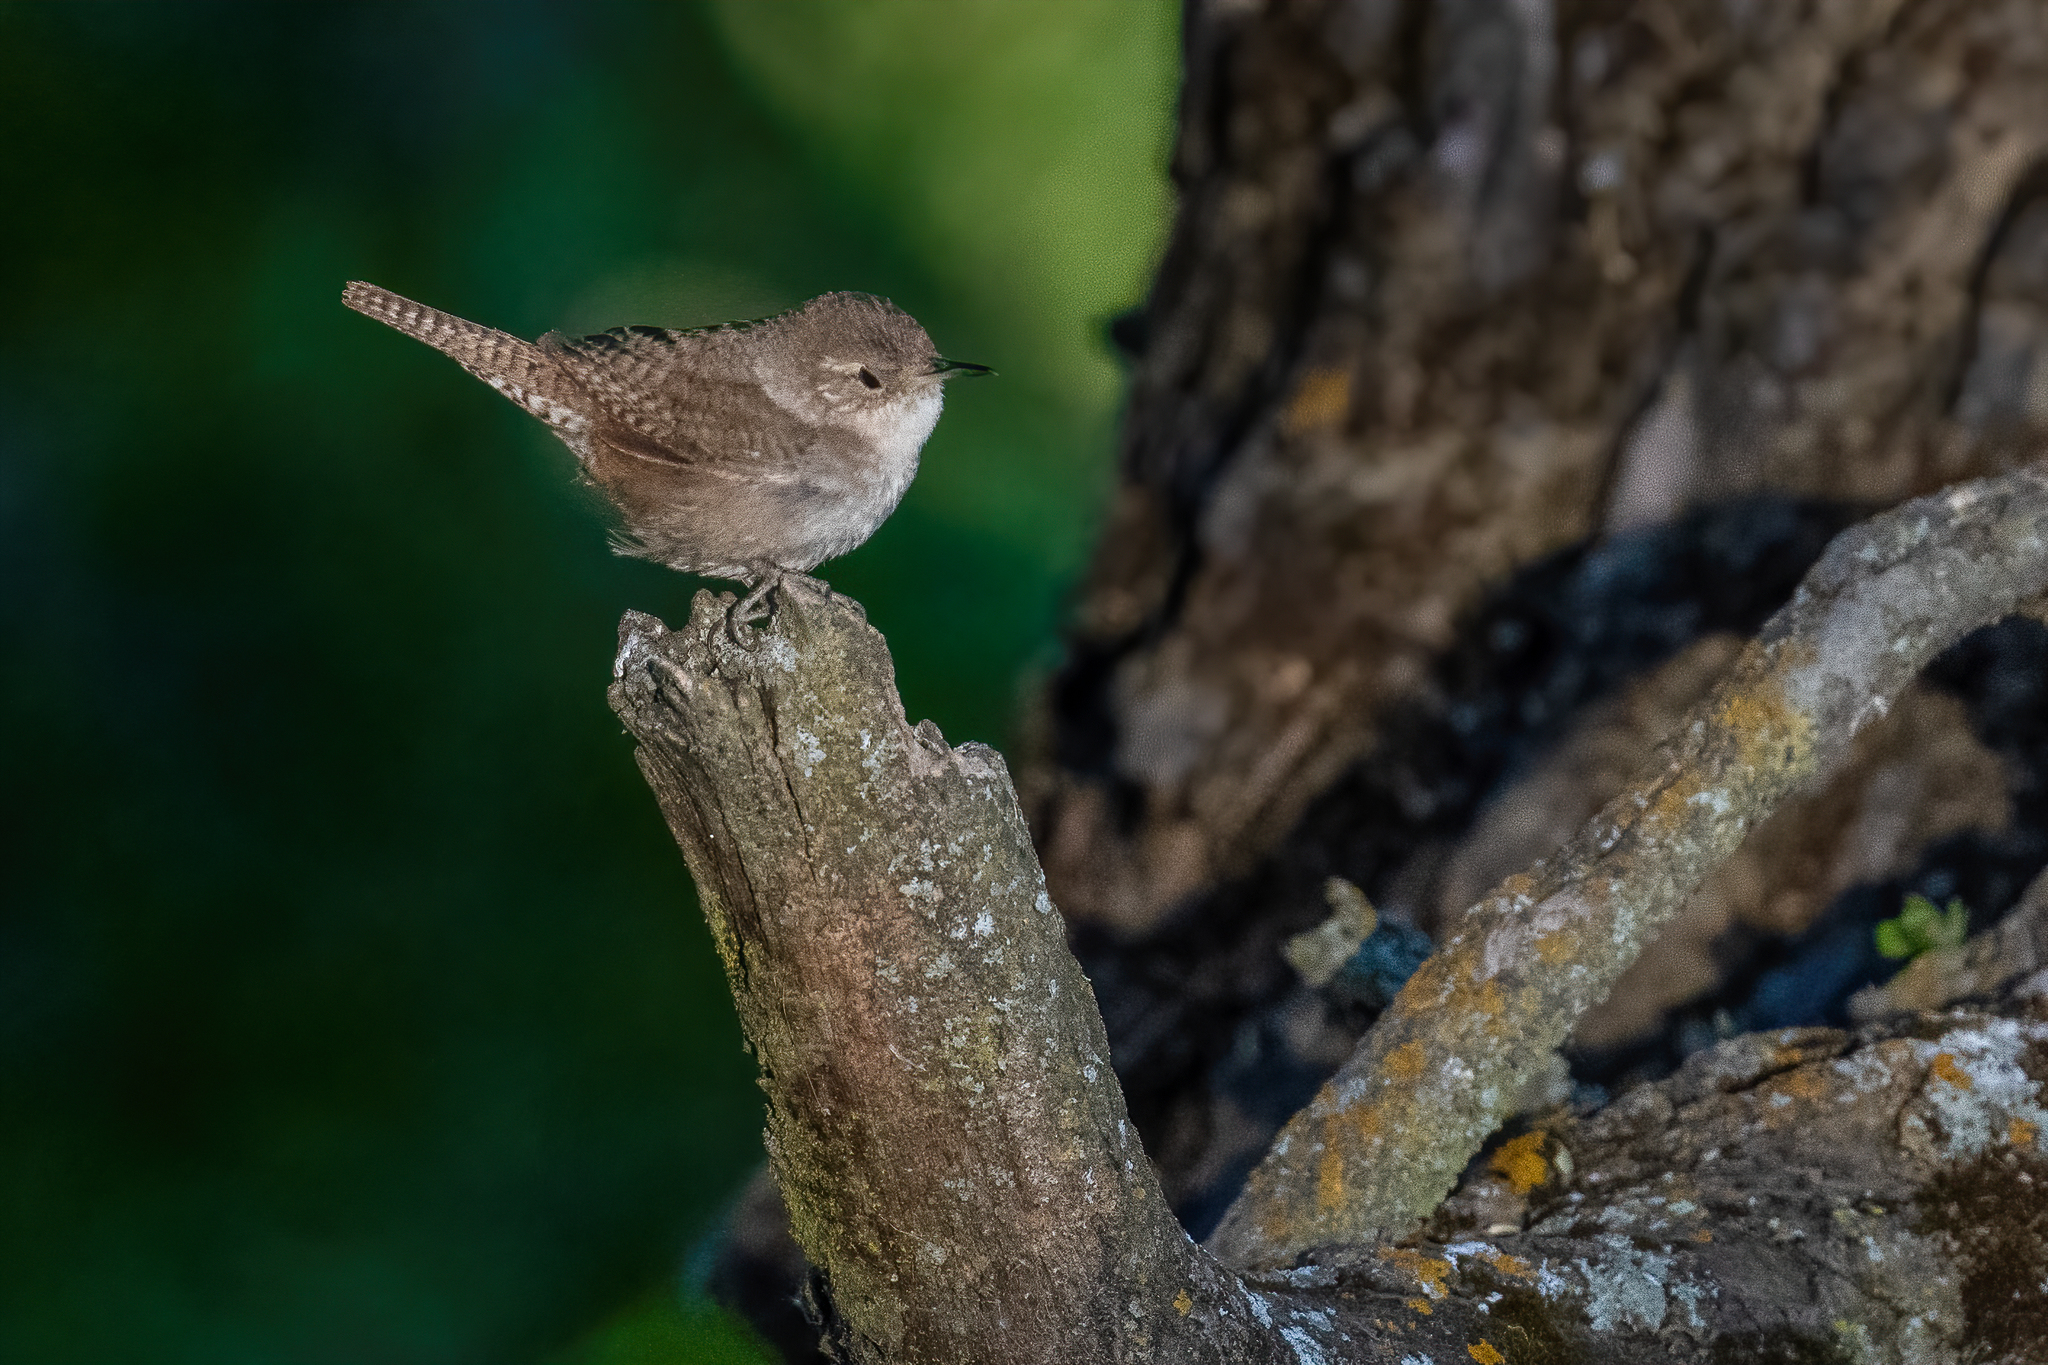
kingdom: Animalia
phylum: Chordata
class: Aves
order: Passeriformes
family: Troglodytidae
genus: Troglodytes
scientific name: Troglodytes aedon
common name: House wren
